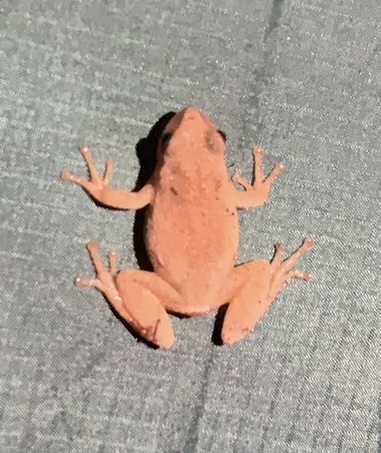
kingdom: Animalia
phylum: Chordata
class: Amphibia
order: Anura
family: Hylidae
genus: Pseudacris
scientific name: Pseudacris crucifer
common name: Spring peeper
